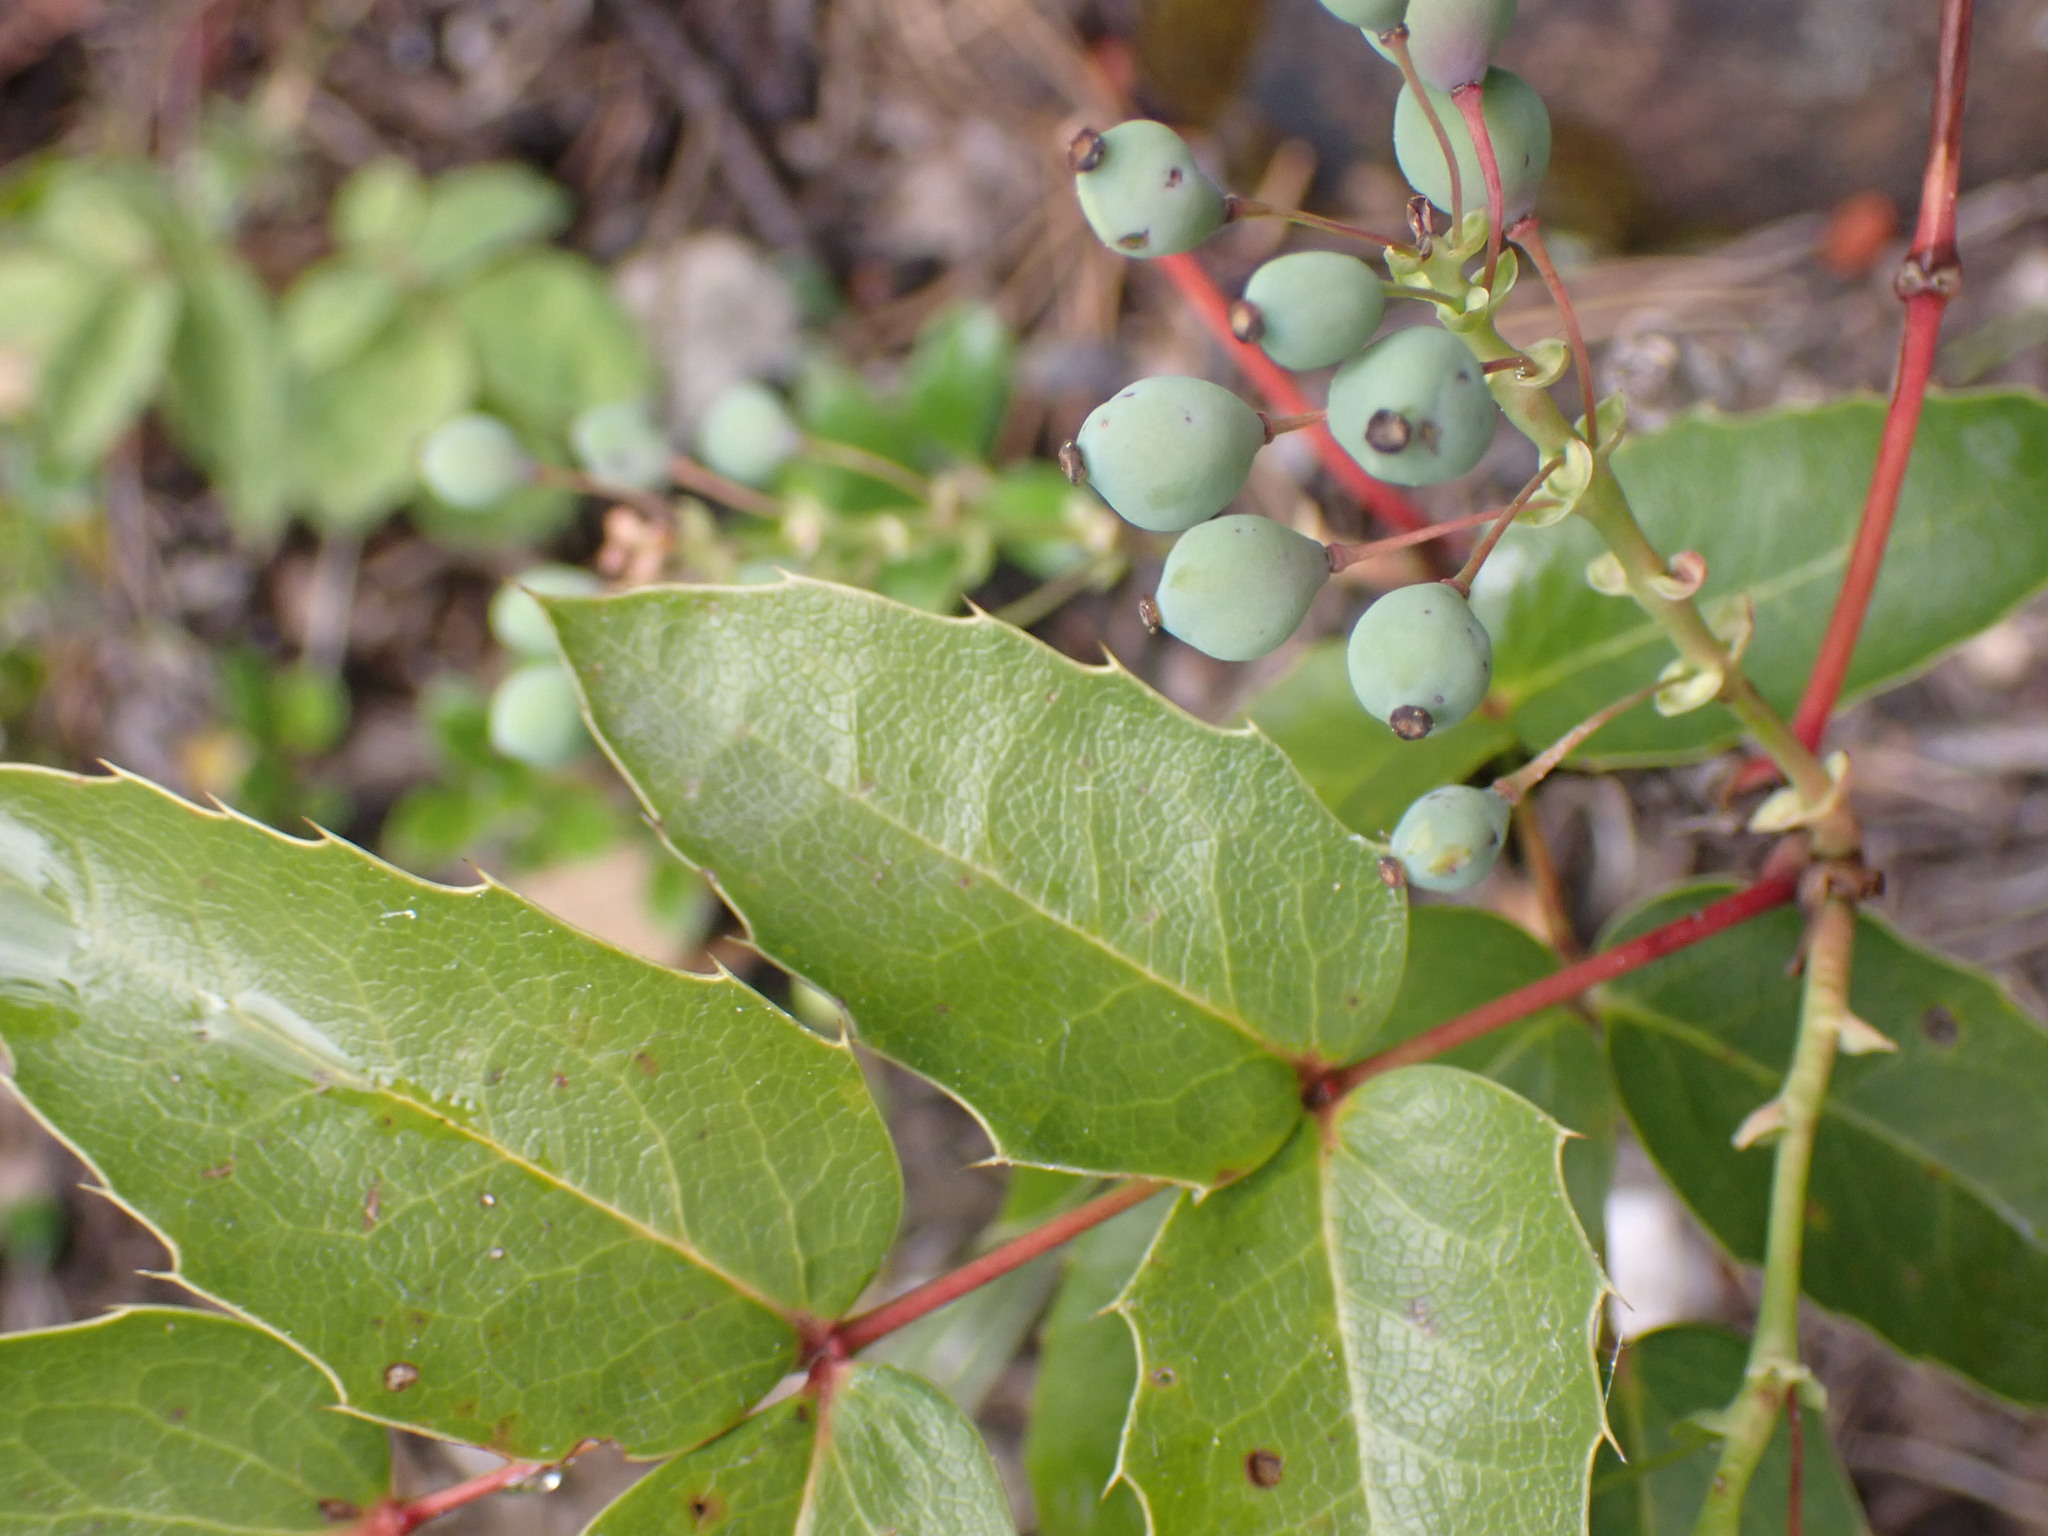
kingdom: Plantae
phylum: Tracheophyta
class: Magnoliopsida
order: Ranunculales
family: Berberidaceae
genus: Mahonia
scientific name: Mahonia aquifolium
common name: Oregon-grape
